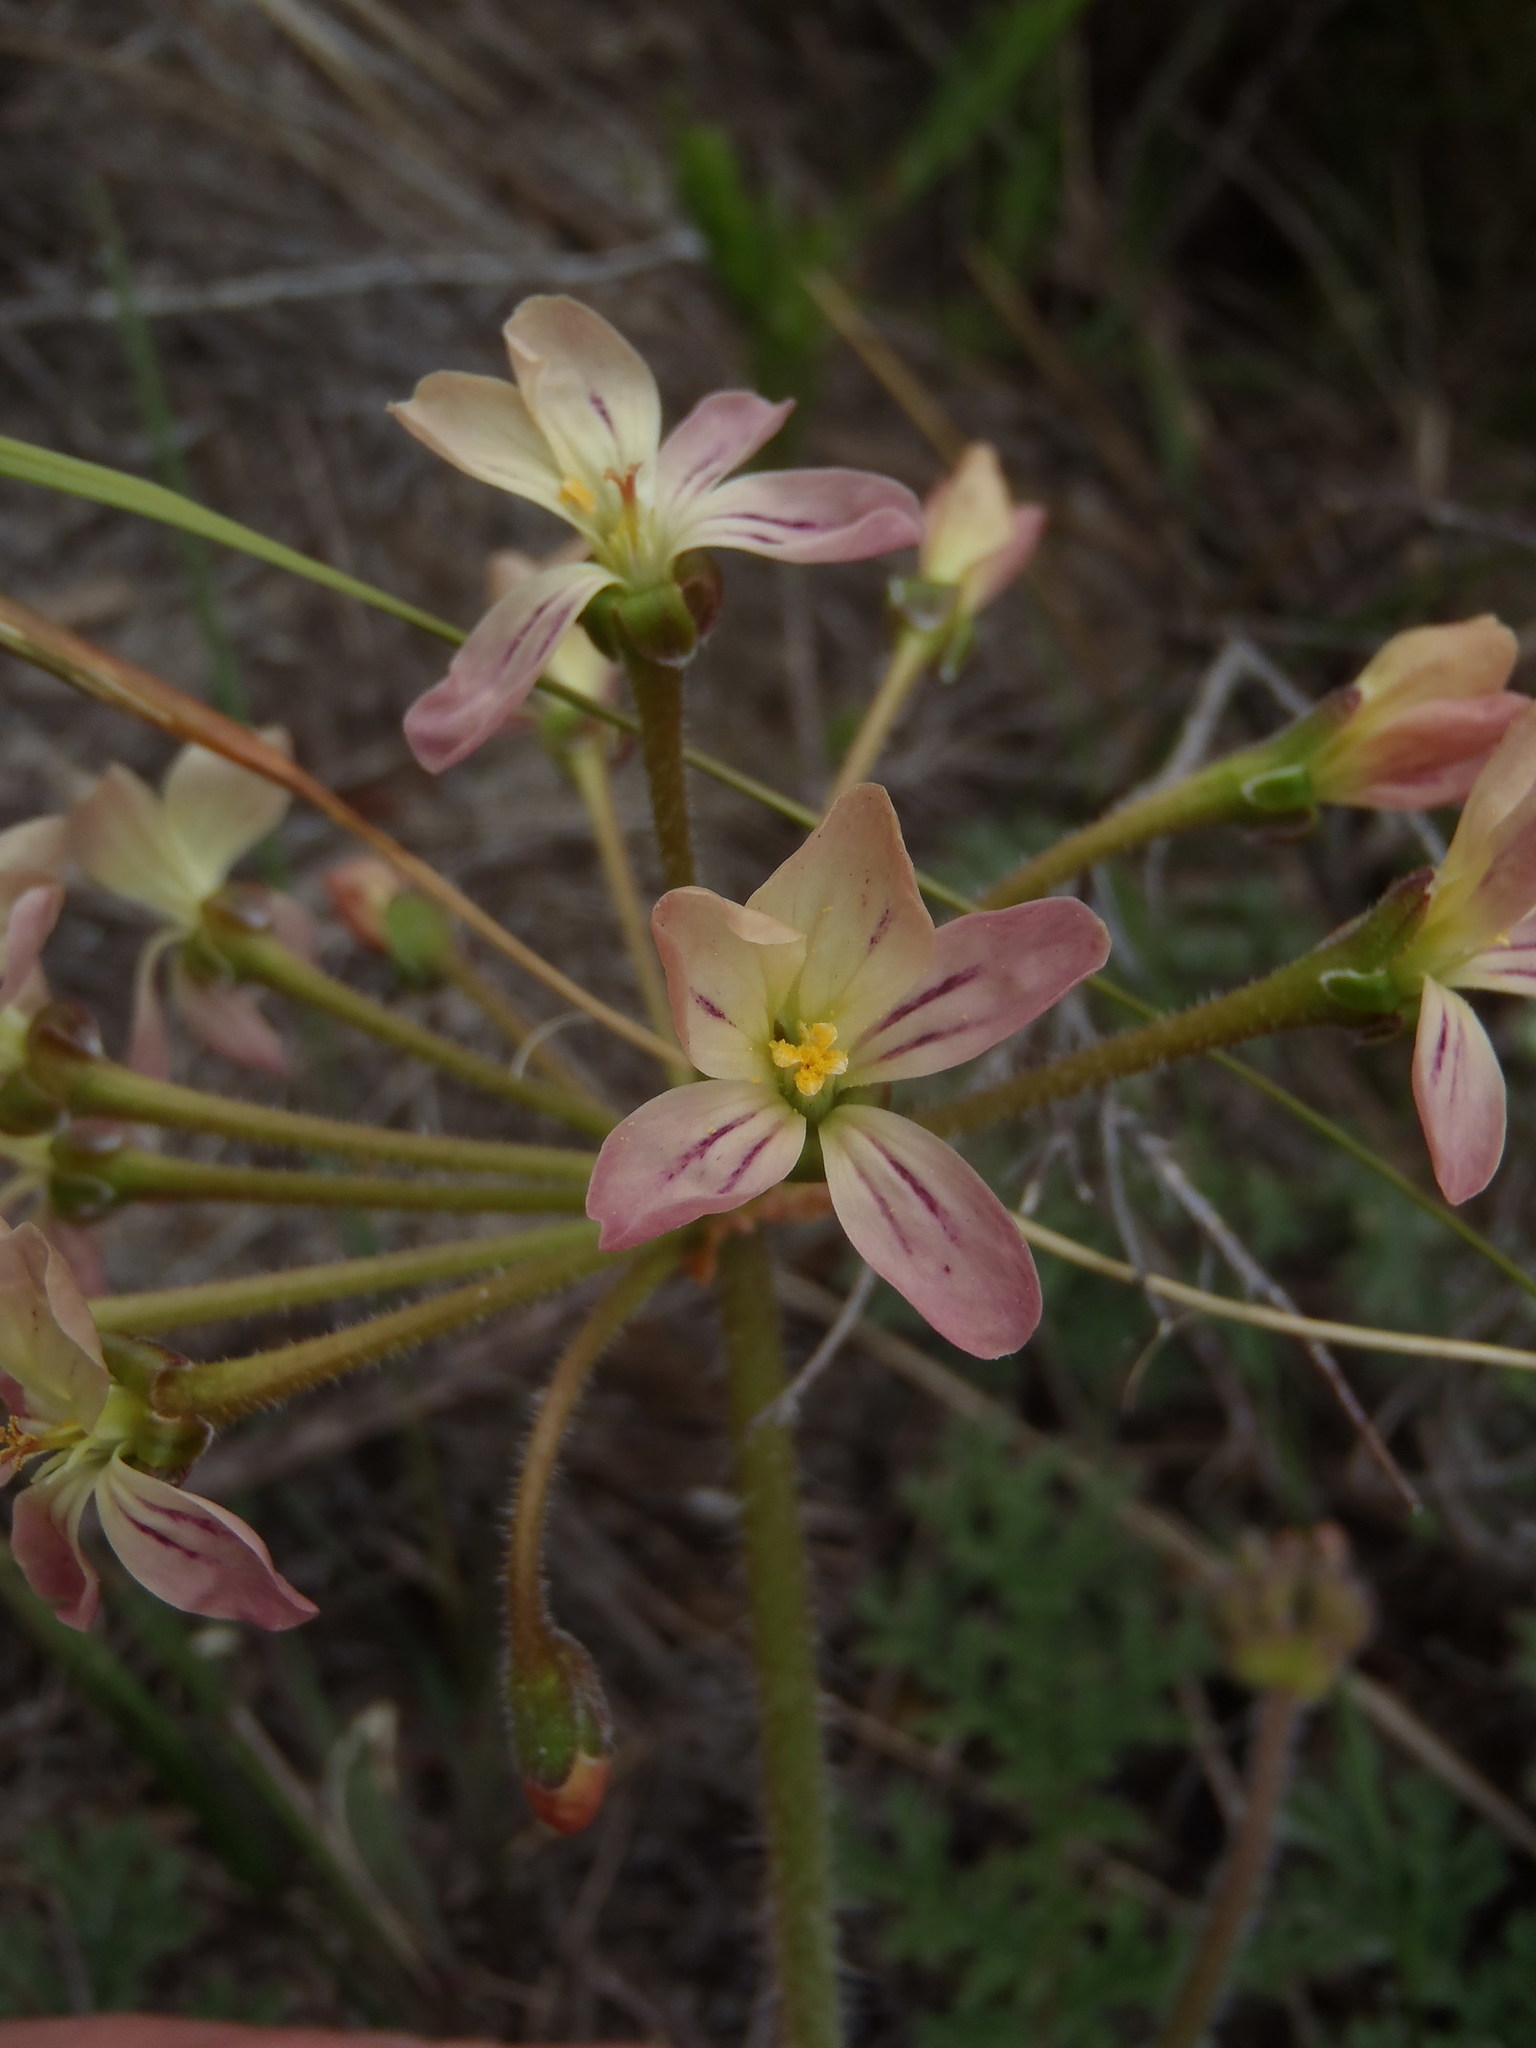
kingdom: Plantae
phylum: Tracheophyta
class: Magnoliopsida
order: Geraniales
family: Geraniaceae
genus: Pelargonium
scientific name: Pelargonium triste
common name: Night-scent pelargonium
